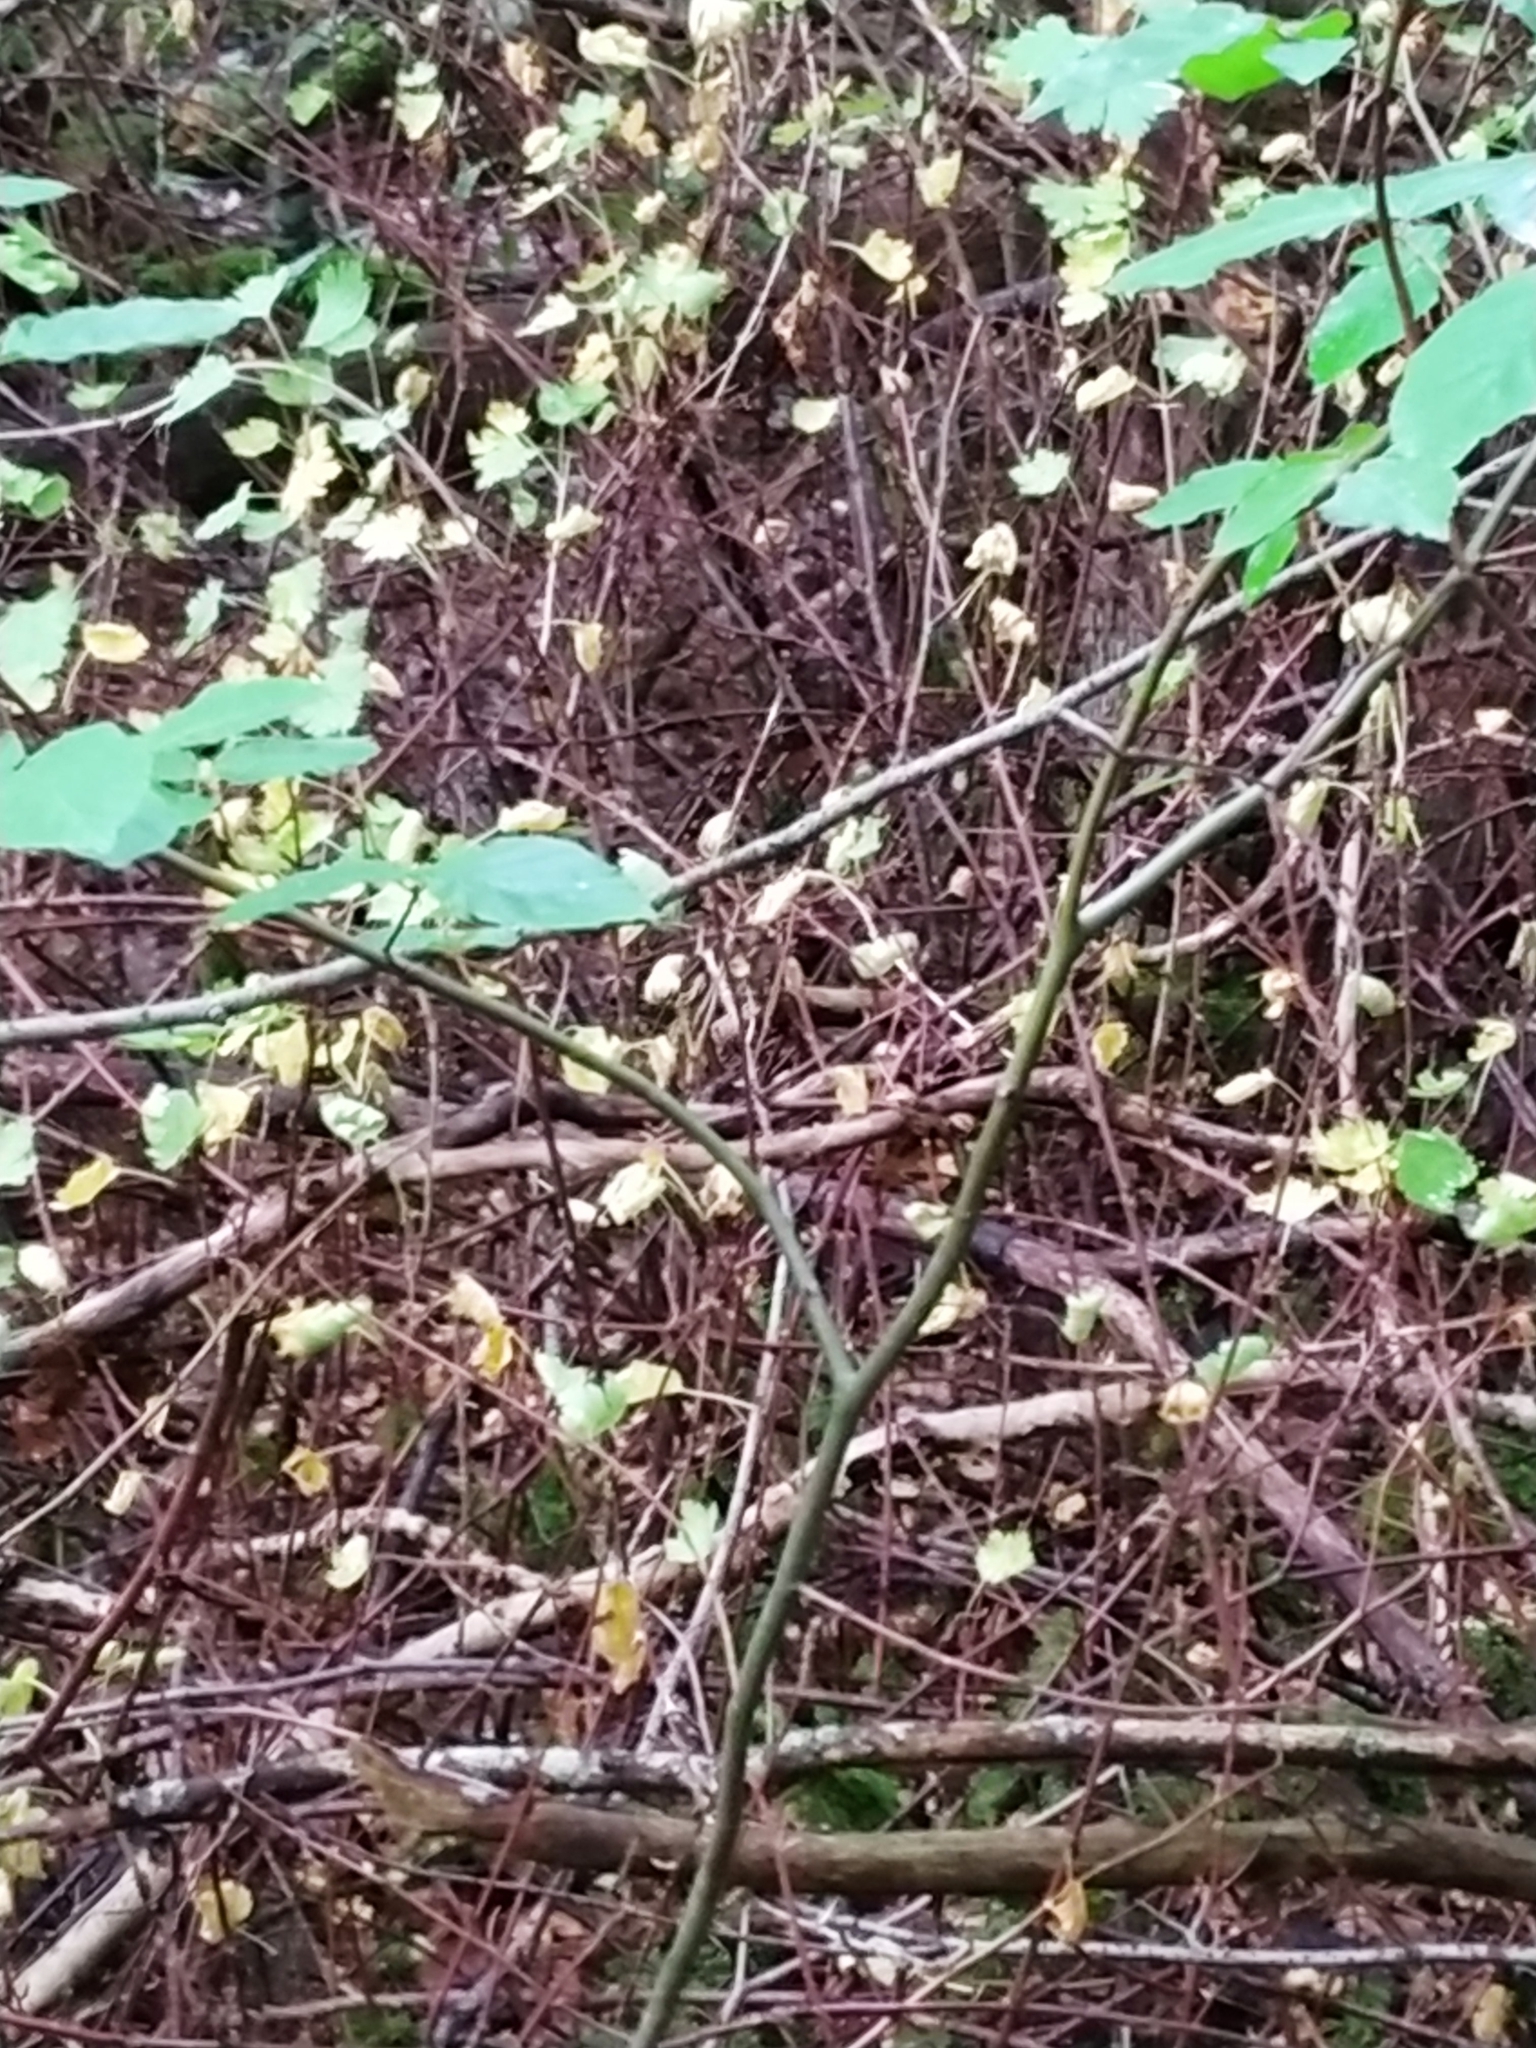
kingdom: Plantae
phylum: Tracheophyta
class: Magnoliopsida
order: Saxifragales
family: Grossulariaceae
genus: Ribes
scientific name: Ribes alpinum
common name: Alpine currant
